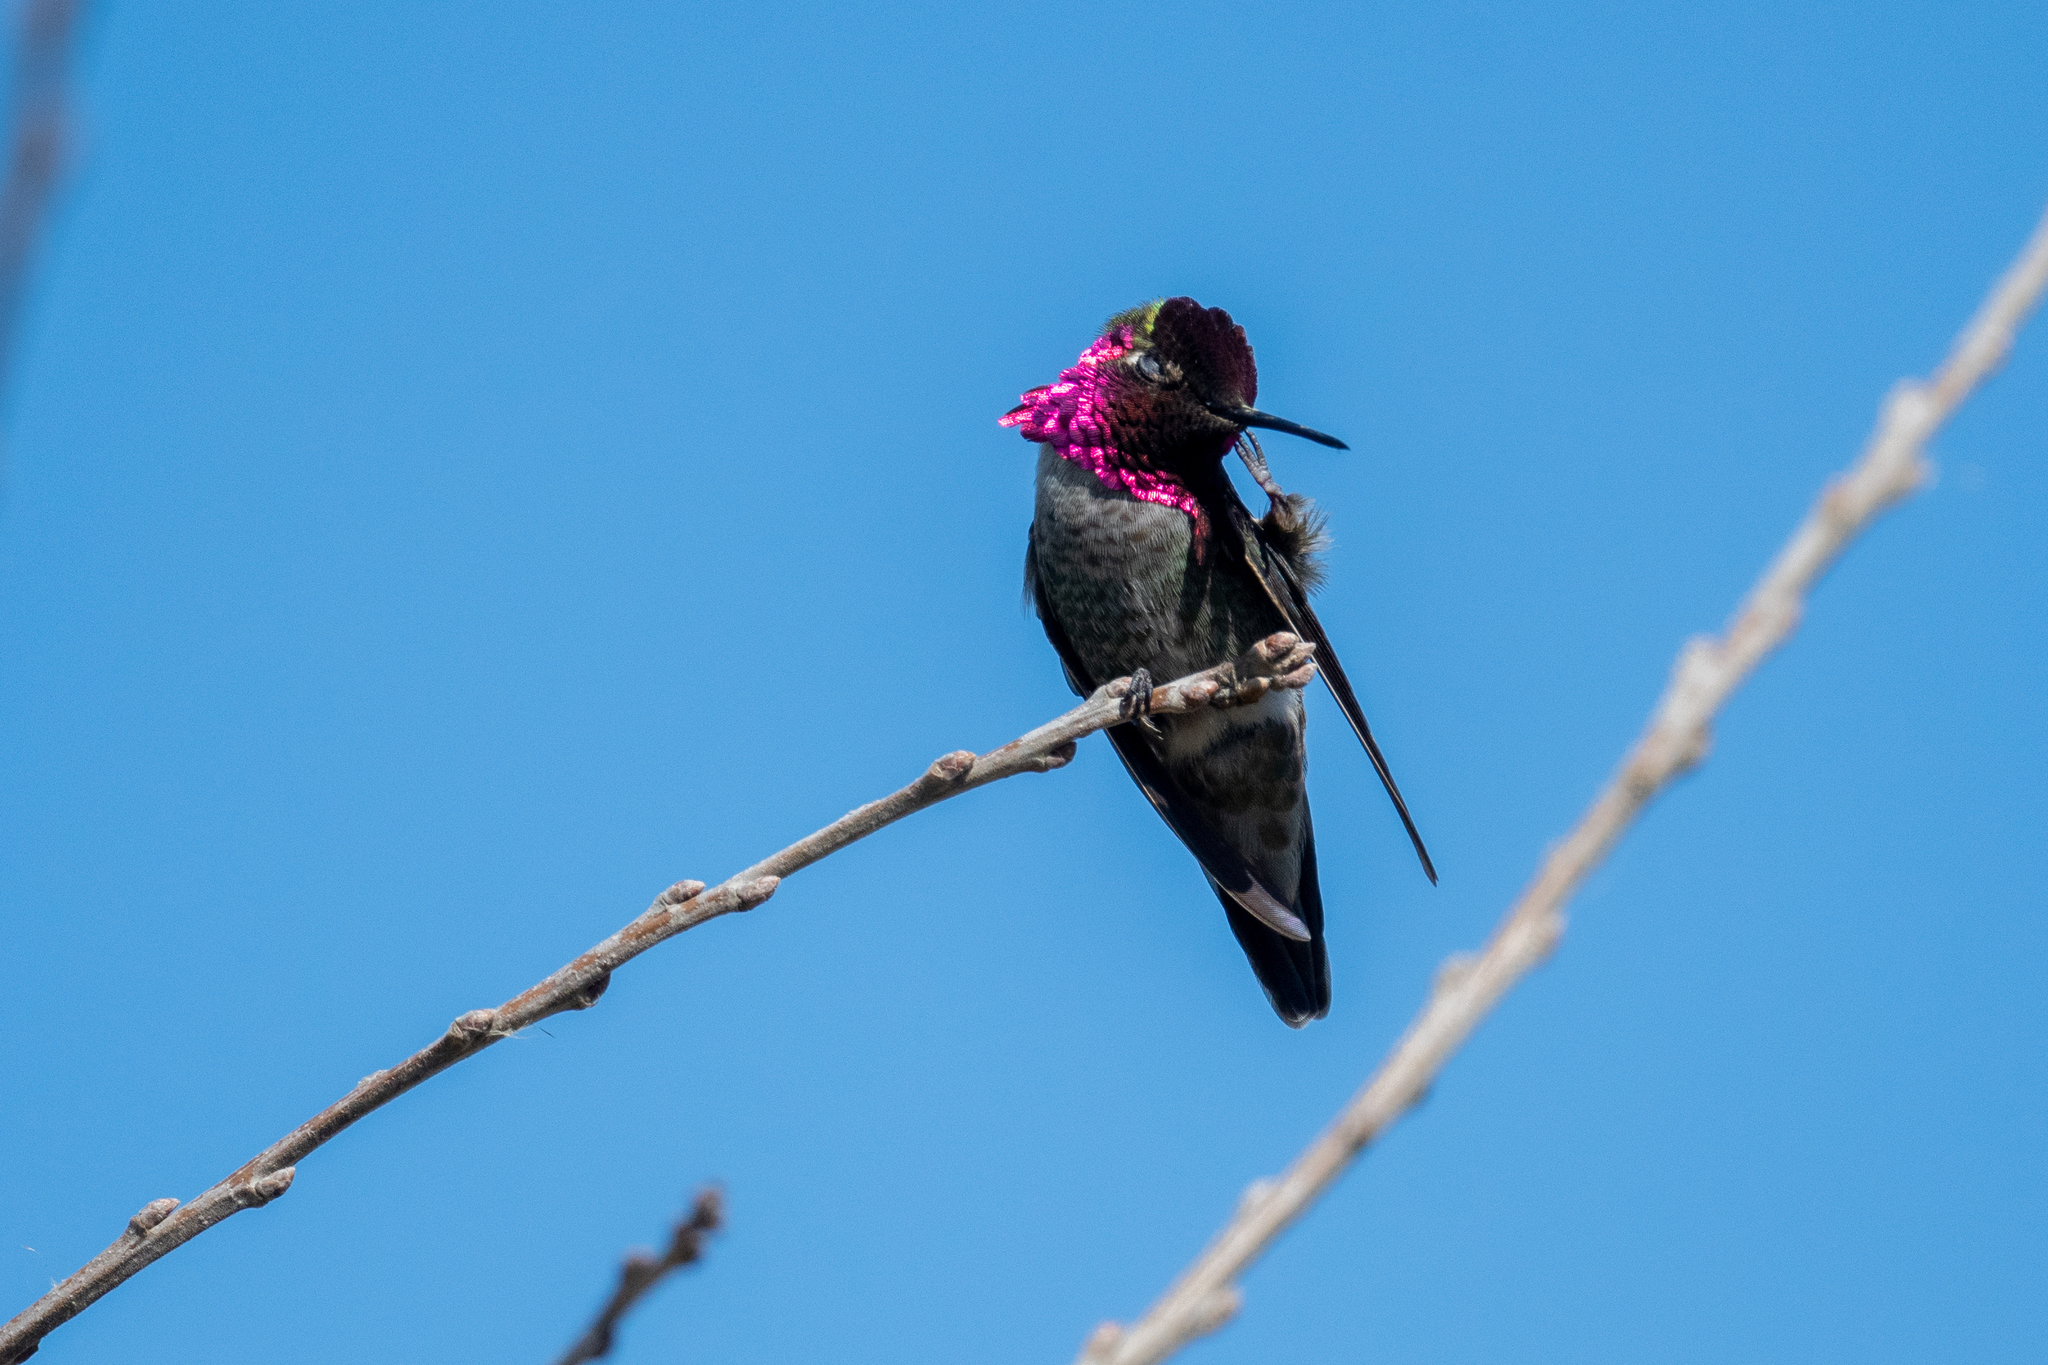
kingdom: Animalia
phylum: Chordata
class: Aves
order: Apodiformes
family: Trochilidae
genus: Calypte
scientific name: Calypte anna
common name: Anna's hummingbird
